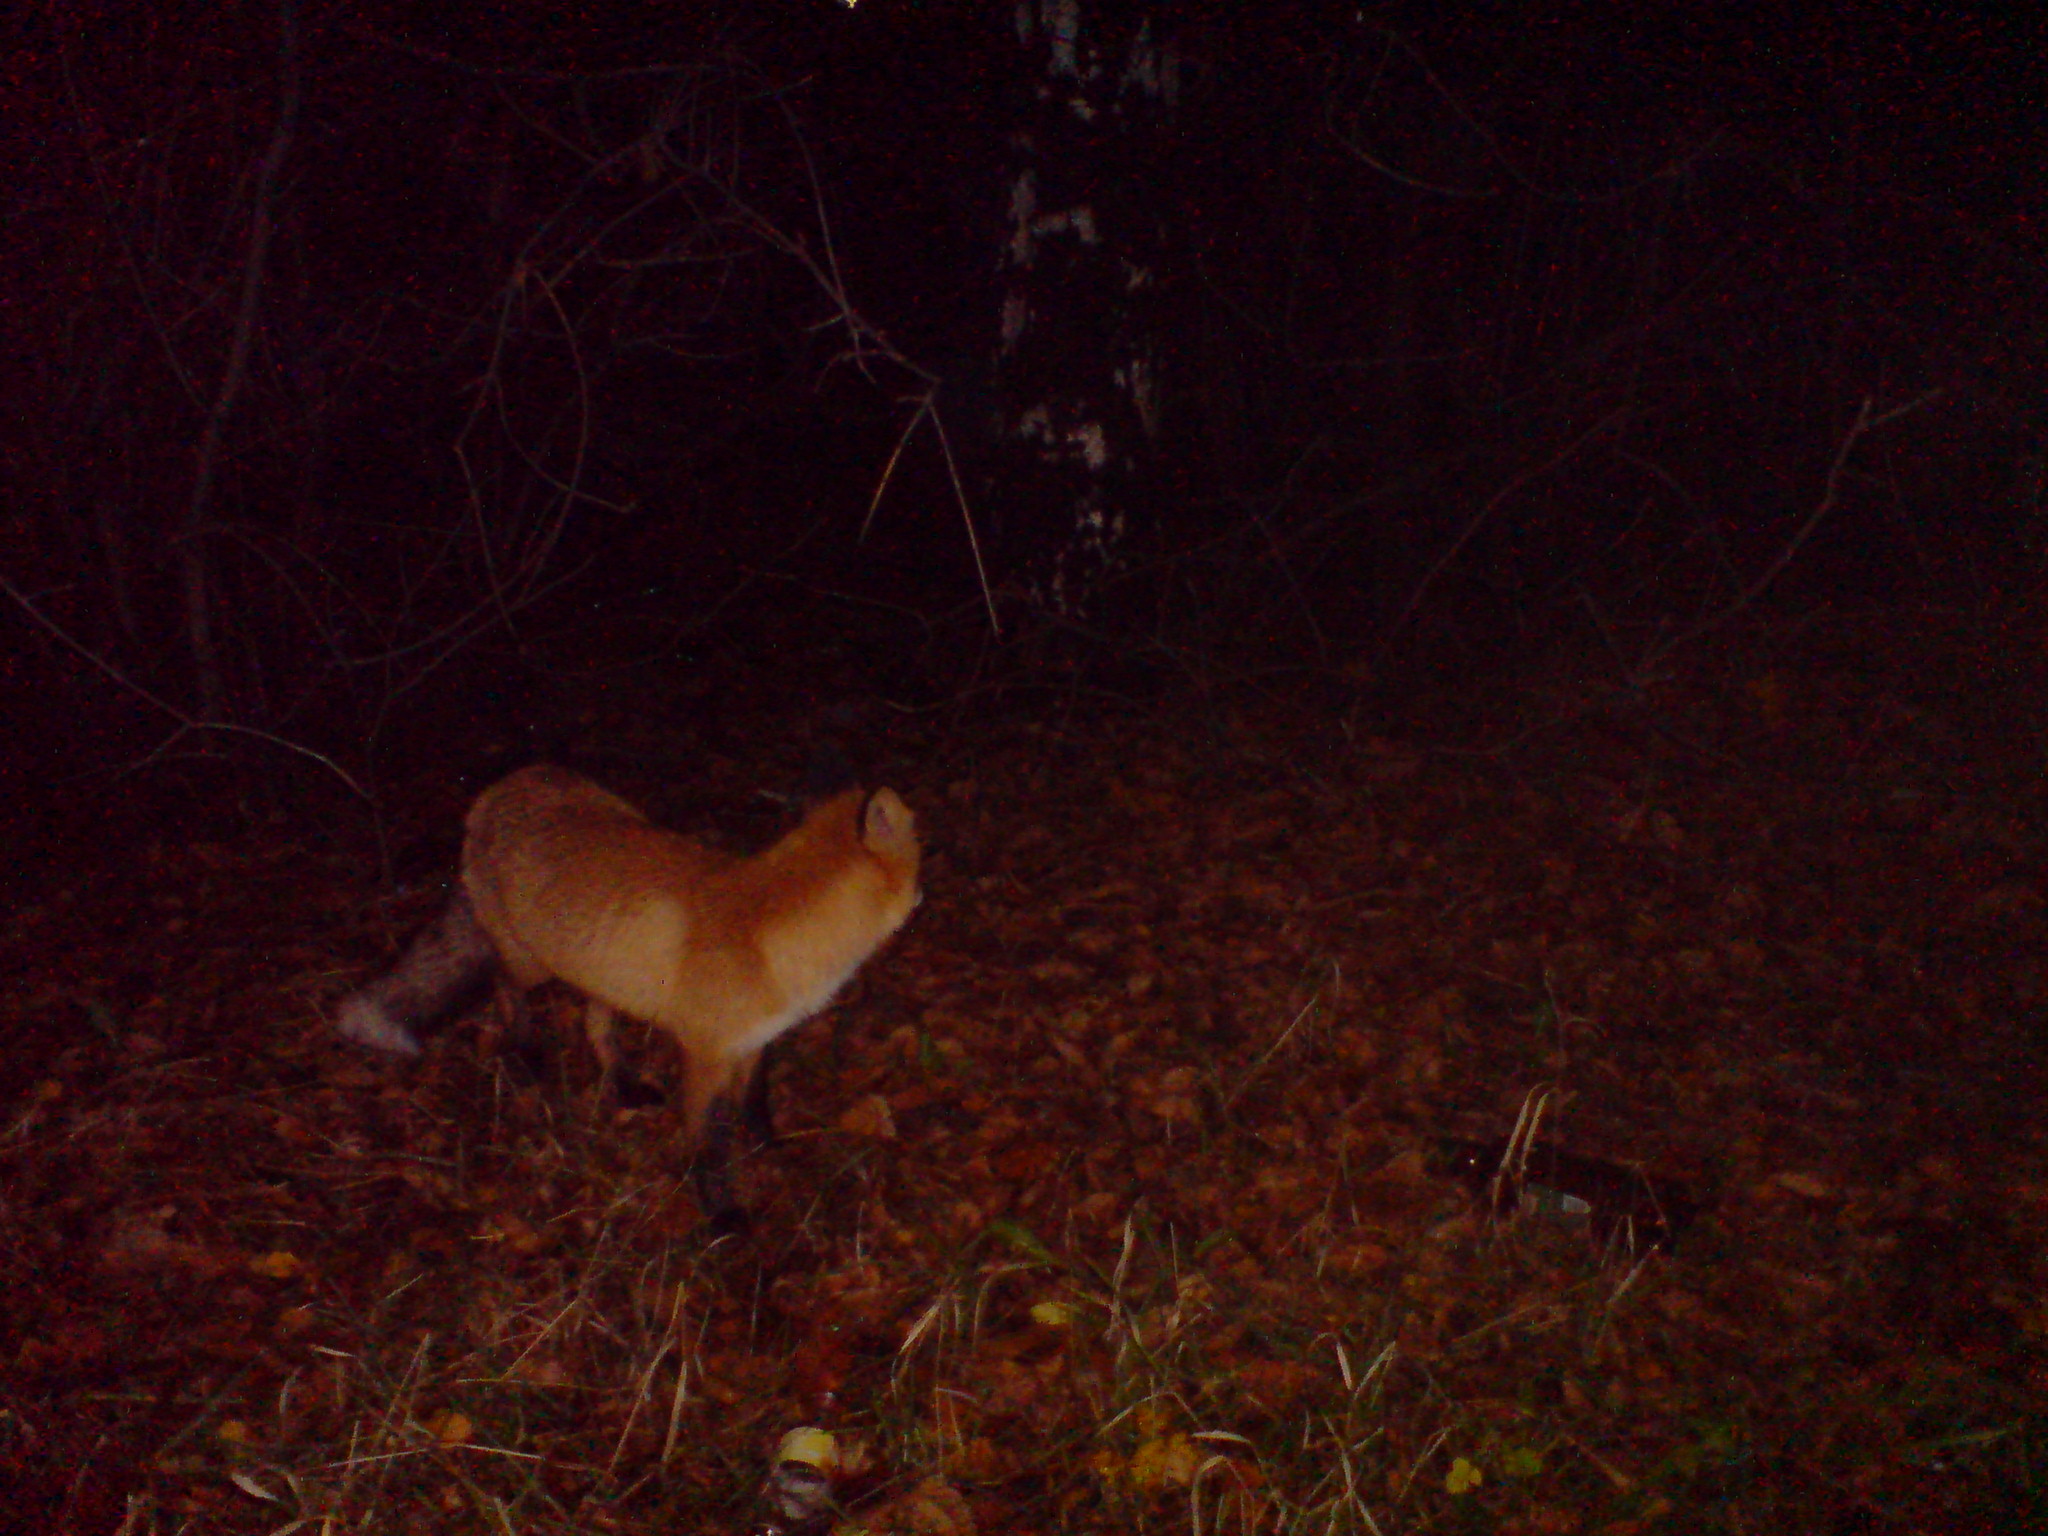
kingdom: Animalia
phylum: Chordata
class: Mammalia
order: Carnivora
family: Canidae
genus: Vulpes
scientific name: Vulpes vulpes
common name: Red fox
